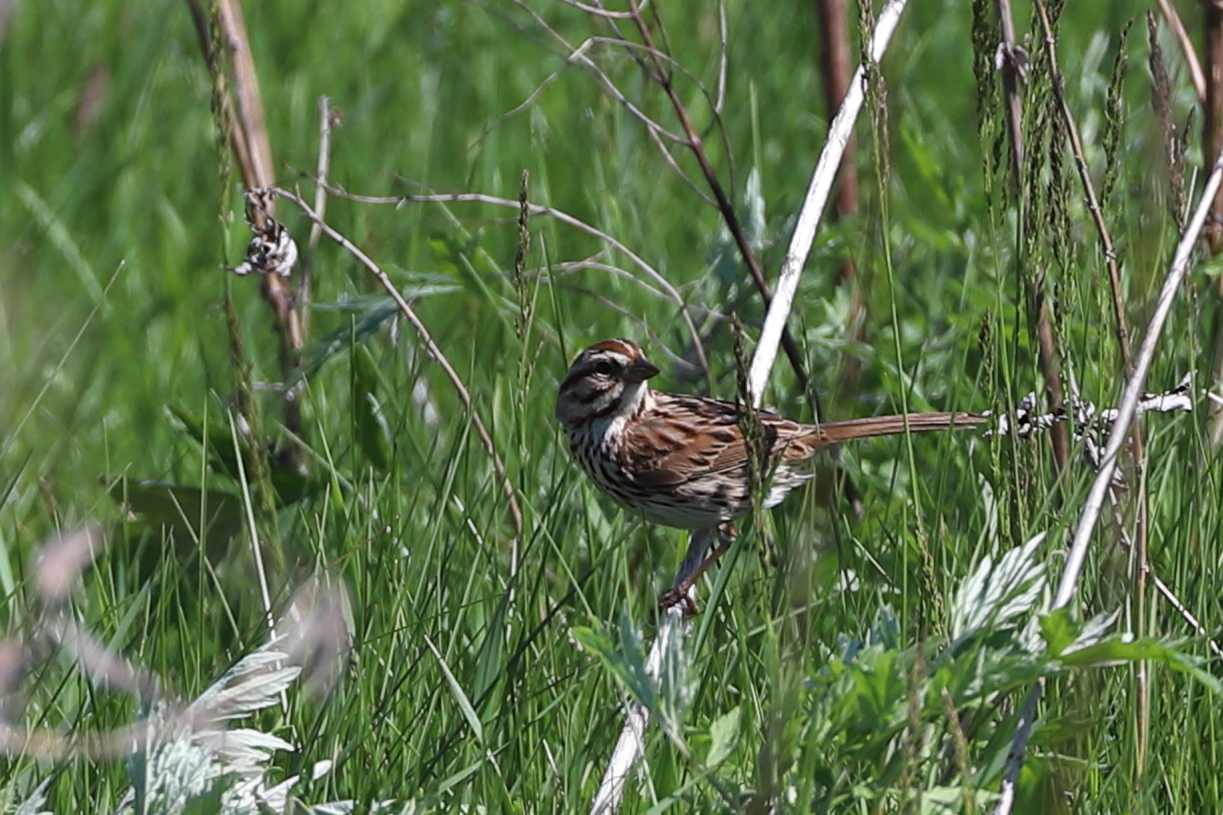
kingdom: Animalia
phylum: Chordata
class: Aves
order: Passeriformes
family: Passerellidae
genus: Melospiza
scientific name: Melospiza melodia
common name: Song sparrow
